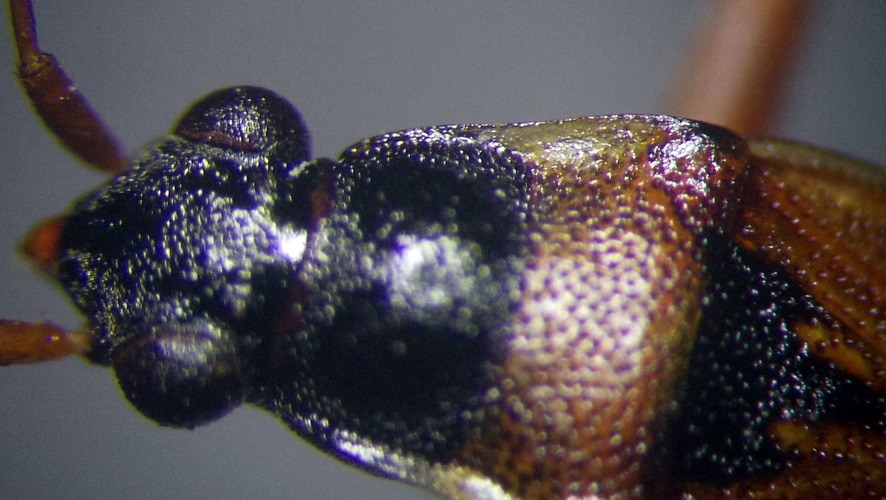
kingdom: Animalia
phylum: Arthropoda
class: Insecta
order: Hemiptera
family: Rhyparochromidae
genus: Beosus
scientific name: Beosus quadripunctatus
